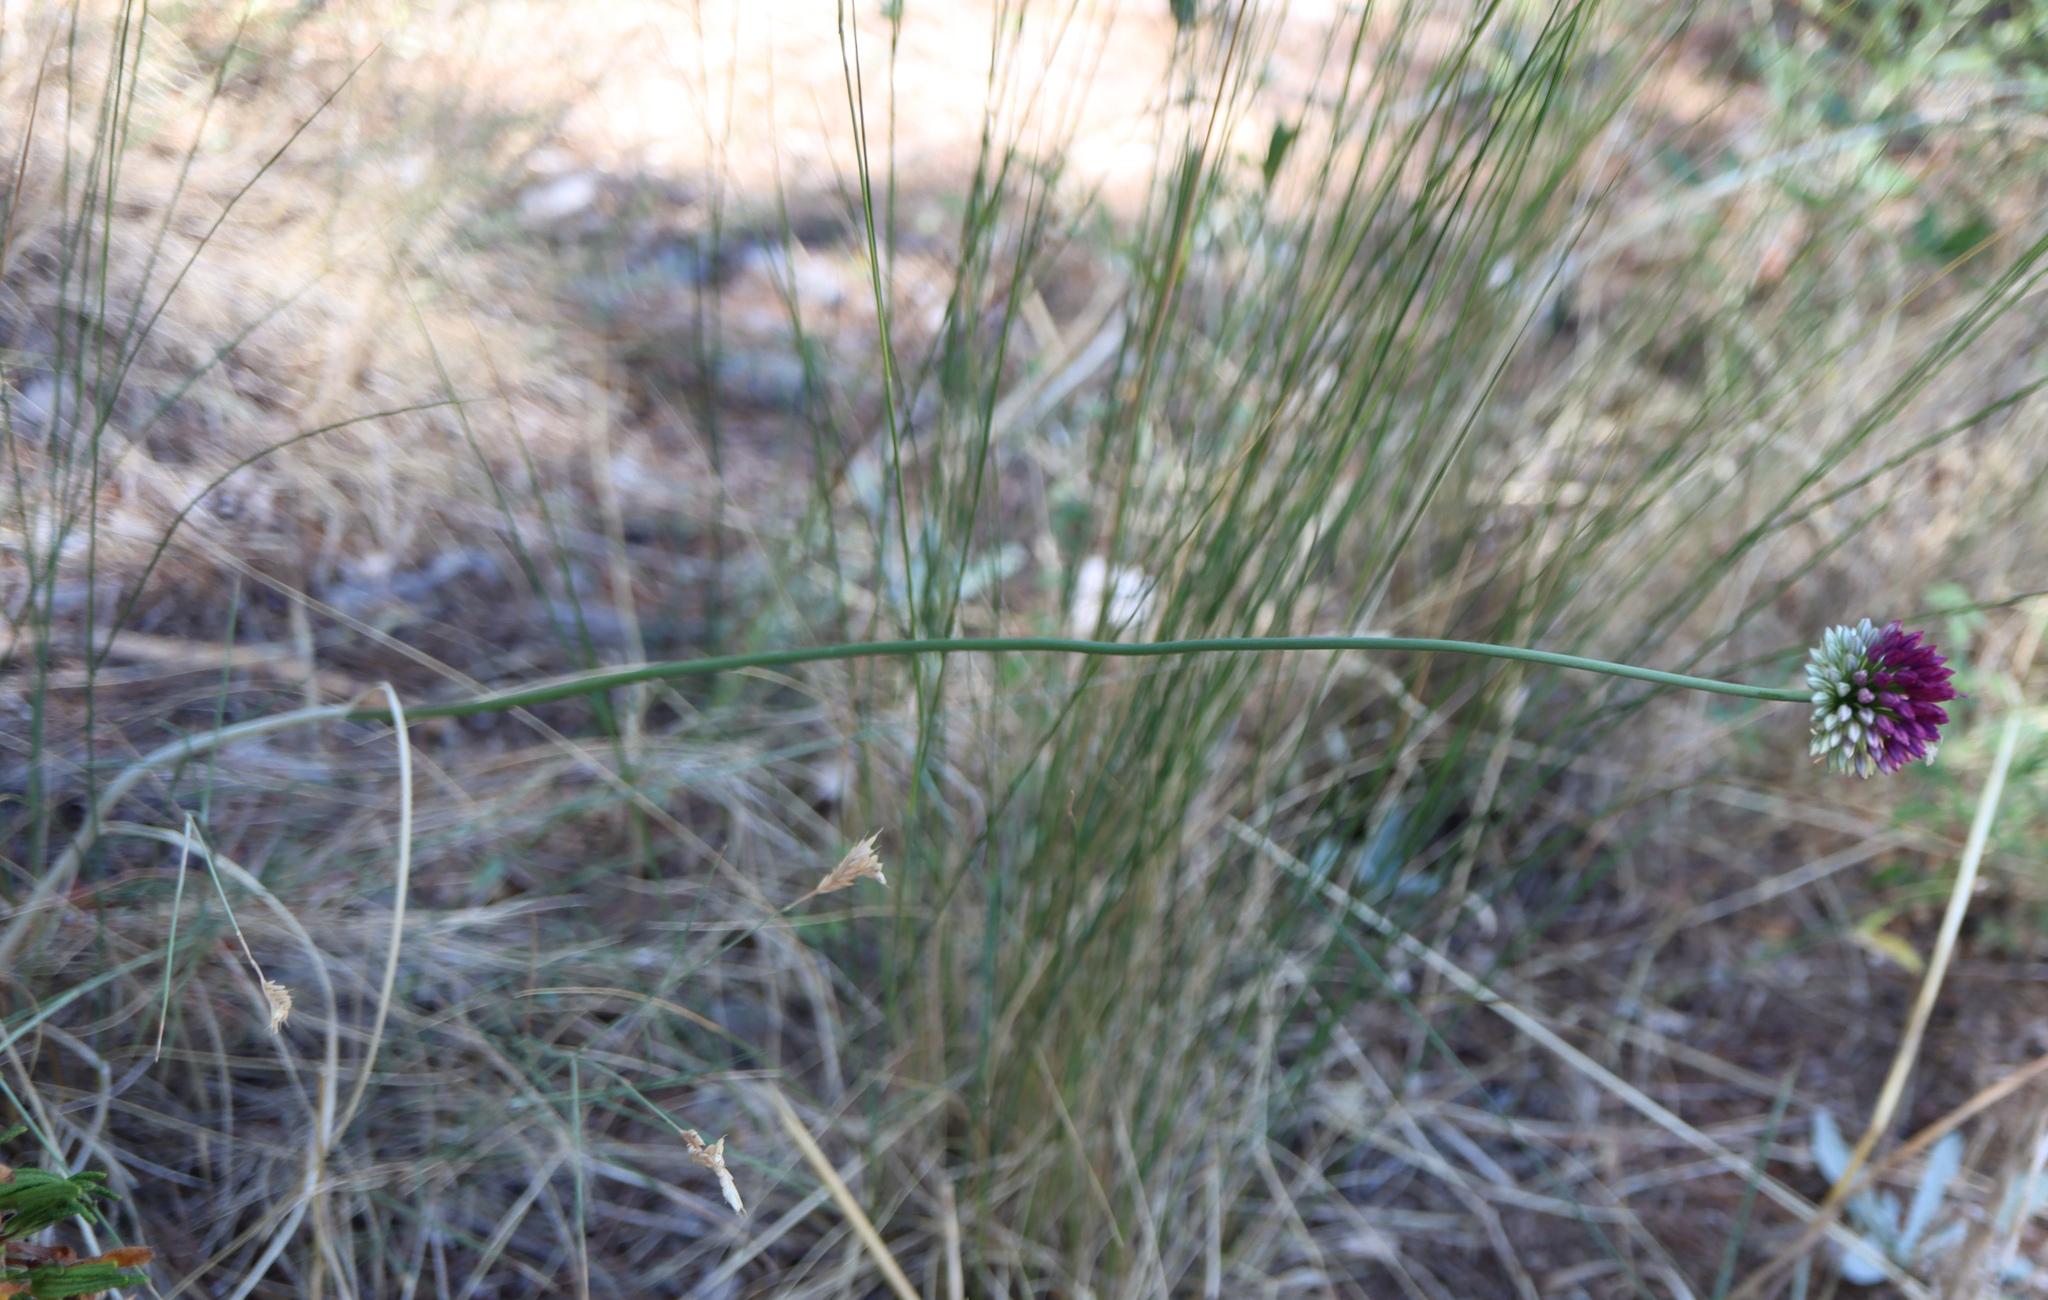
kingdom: Plantae
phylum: Tracheophyta
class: Liliopsida
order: Asparagales
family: Amaryllidaceae
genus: Allium
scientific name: Allium sphaerocephalon
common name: Round-headed leek
